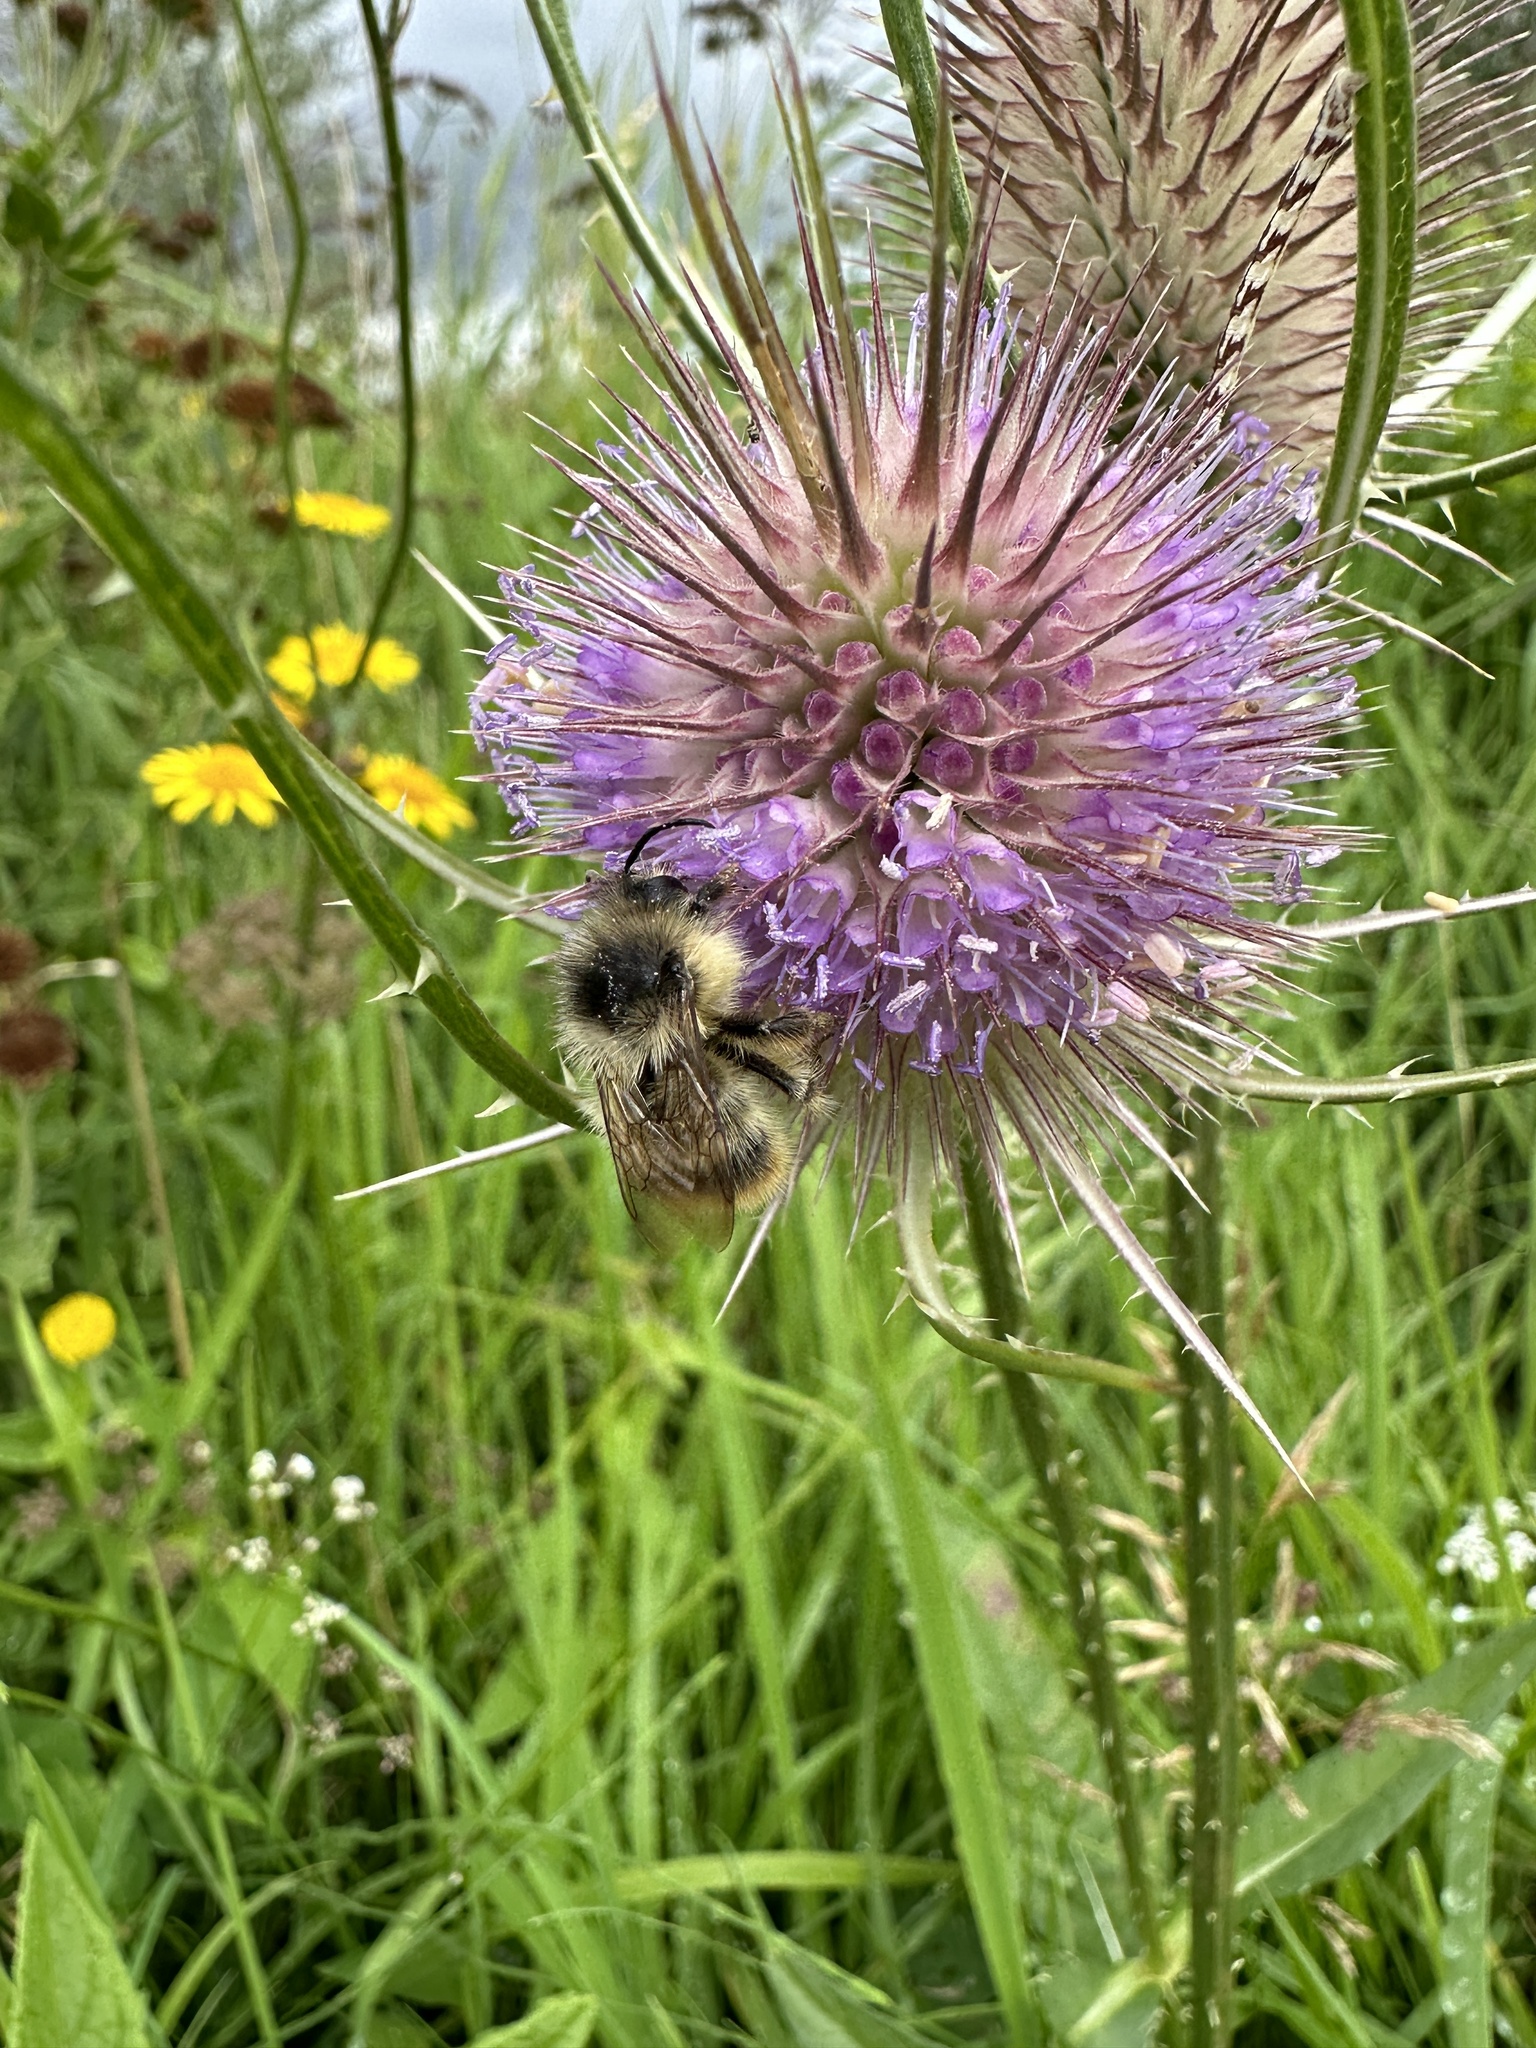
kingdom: Animalia
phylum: Arthropoda
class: Insecta
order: Hymenoptera
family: Apidae
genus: Bombus
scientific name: Bombus sylvarum
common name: Shrill carder bee
